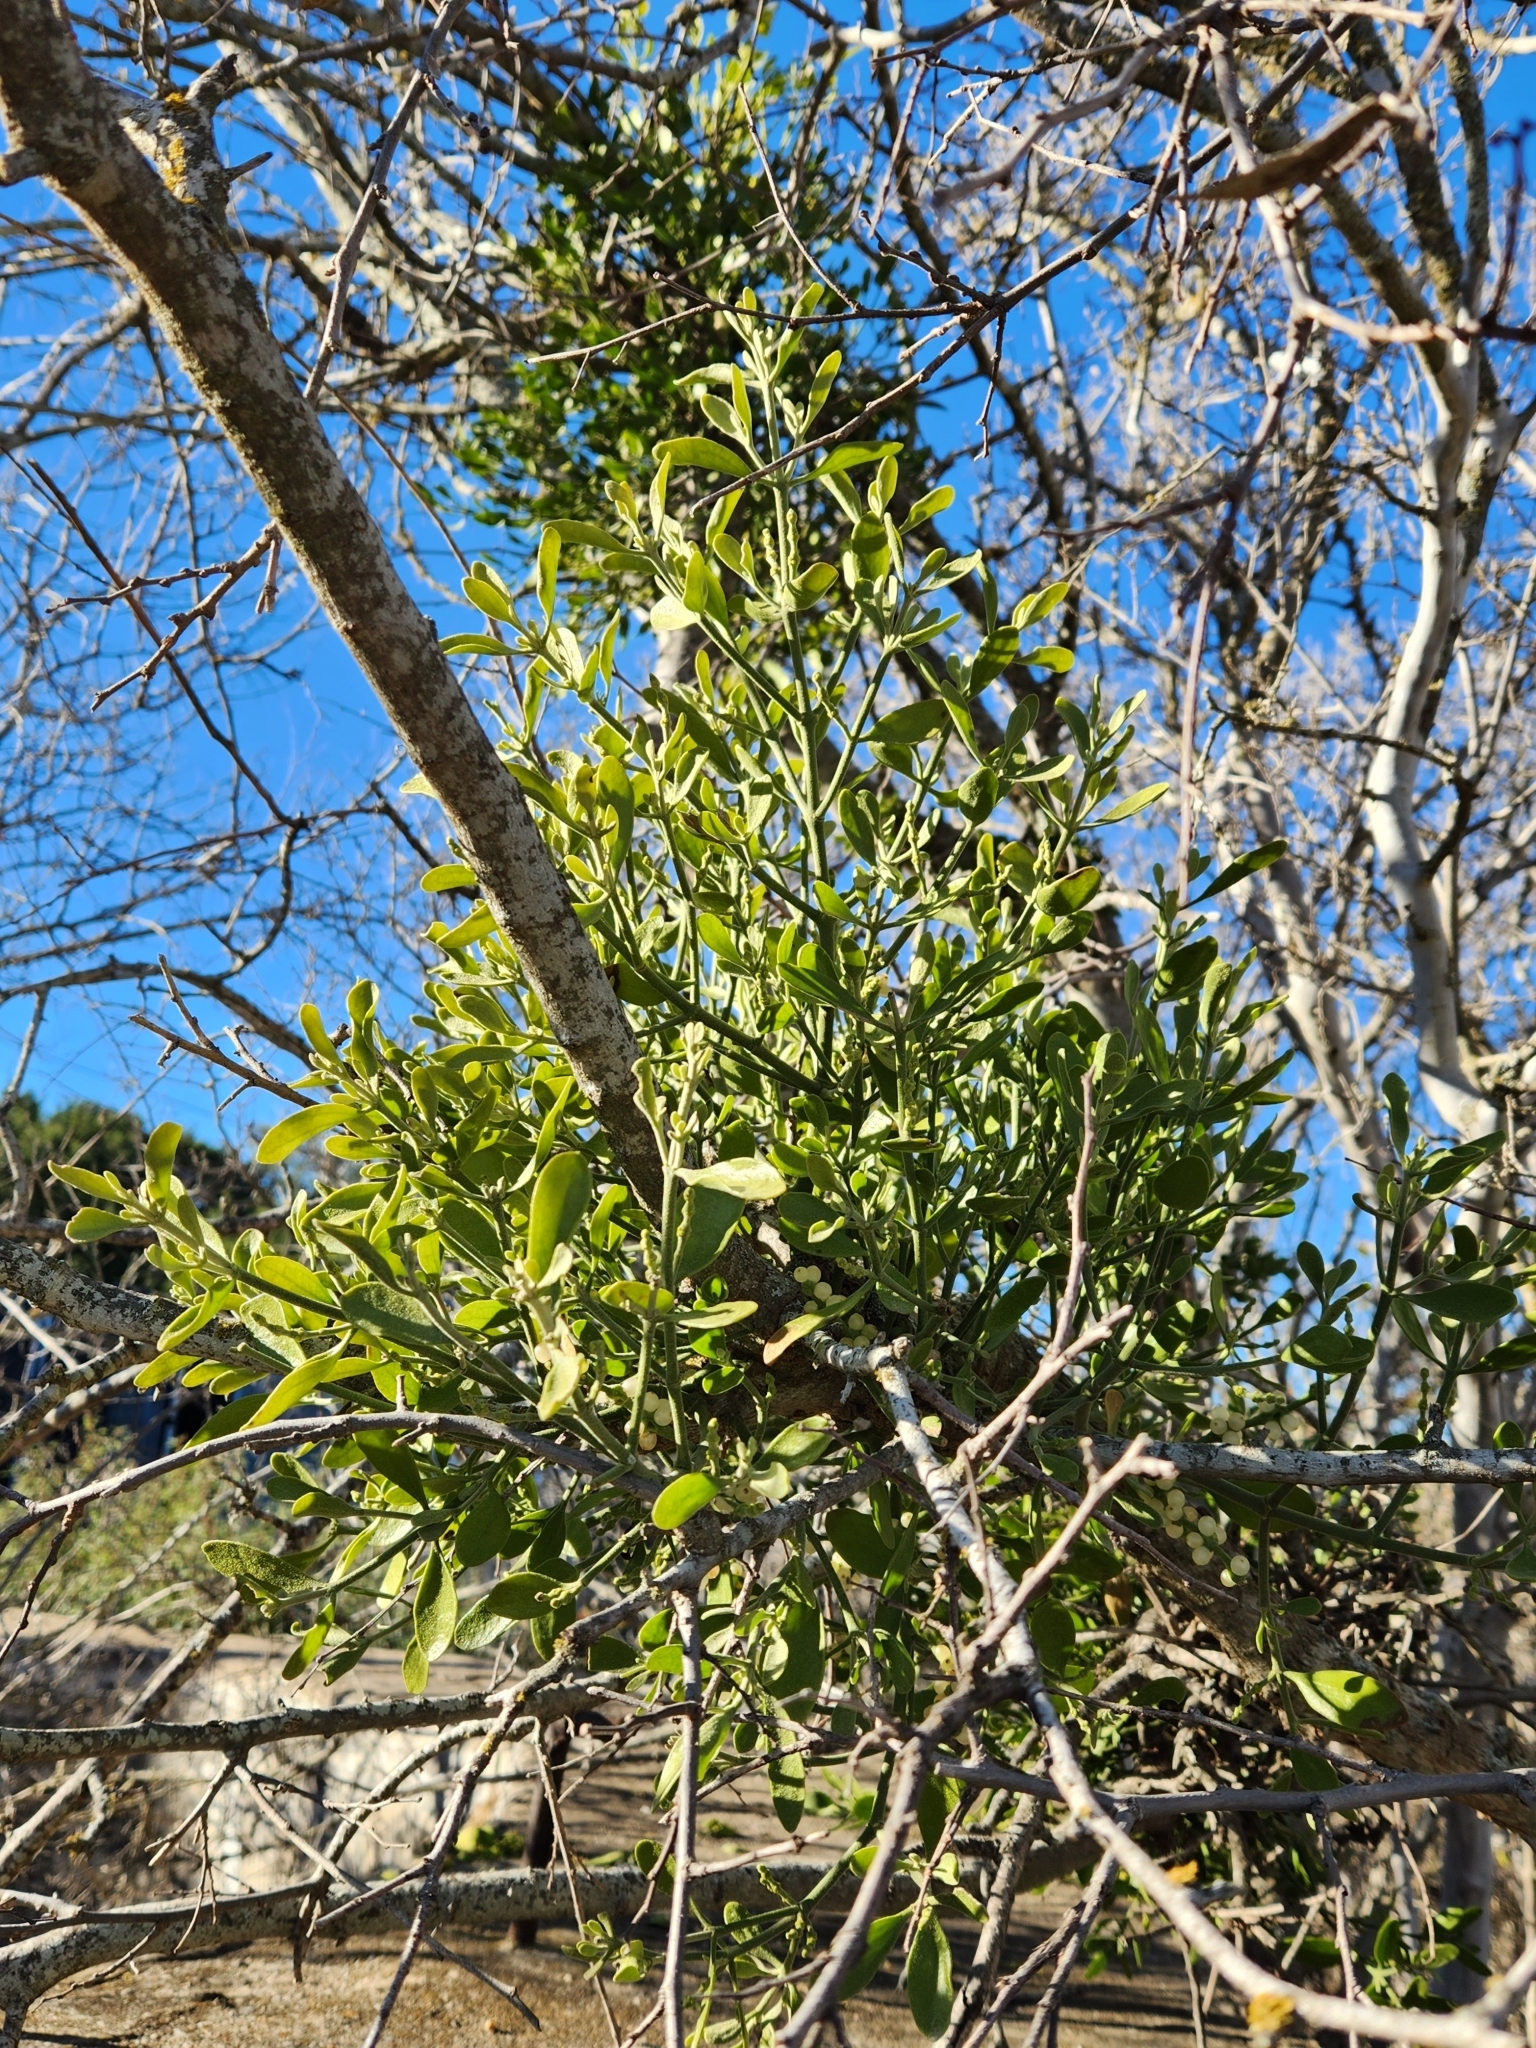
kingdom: Plantae
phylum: Tracheophyta
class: Magnoliopsida
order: Santalales
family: Viscaceae
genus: Phoradendron
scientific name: Phoradendron leucarpum
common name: Pacific mistletoe
